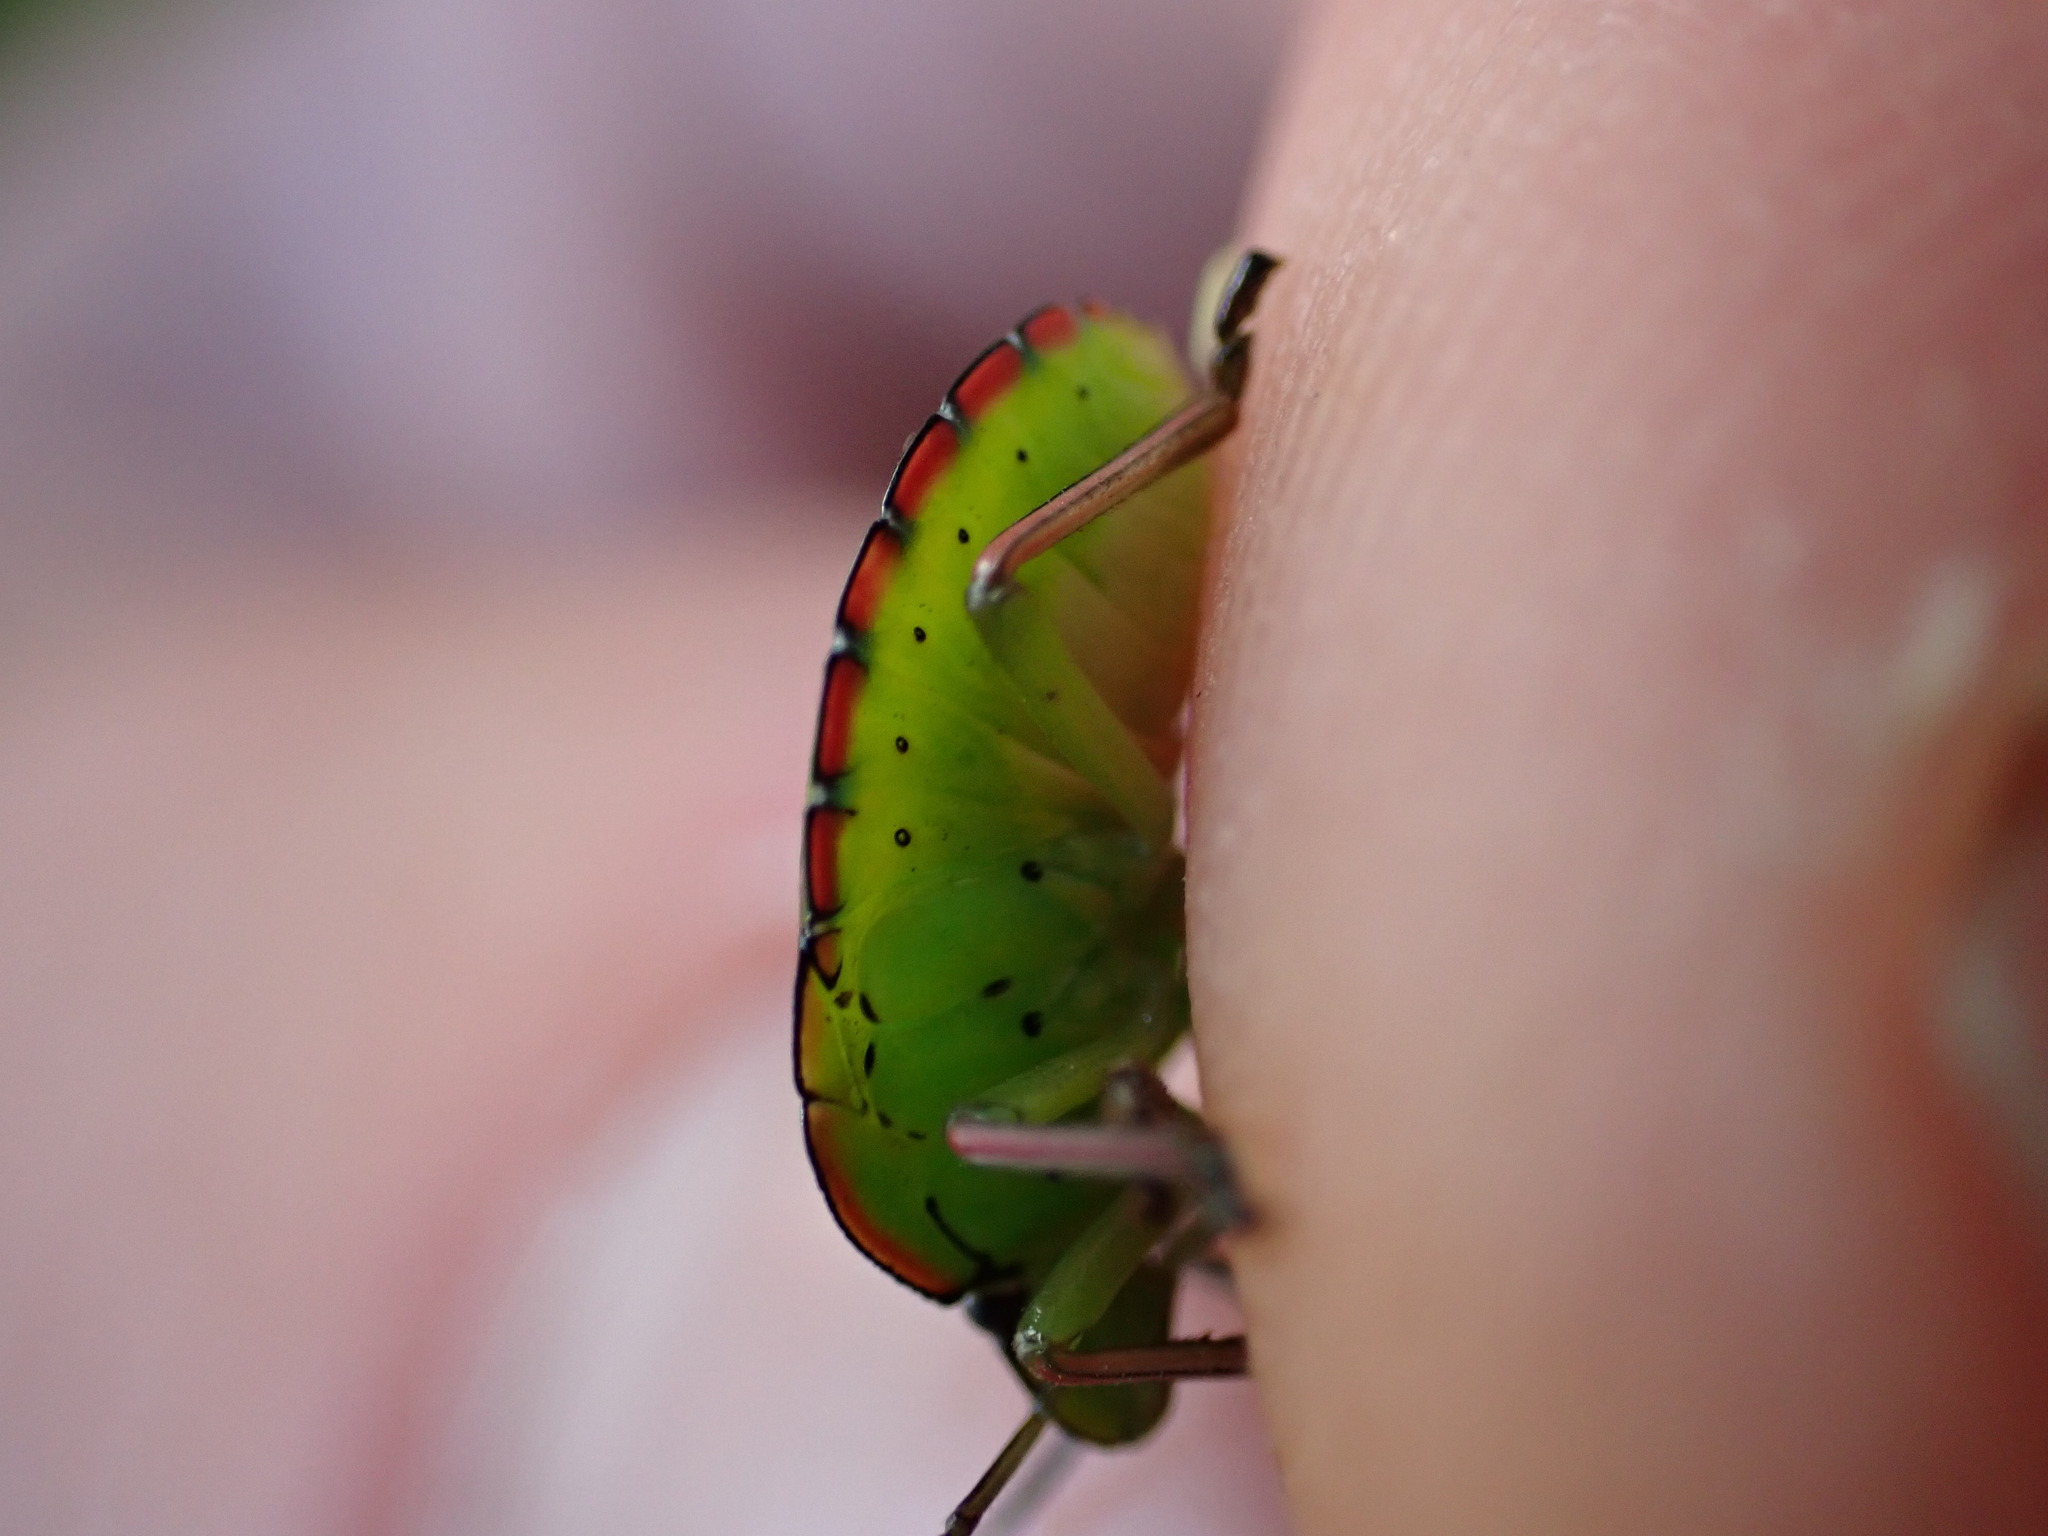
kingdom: Animalia
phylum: Arthropoda
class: Insecta
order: Hemiptera
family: Pentatomidae
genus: Nezara
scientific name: Nezara viridula
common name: Southern green stink bug
